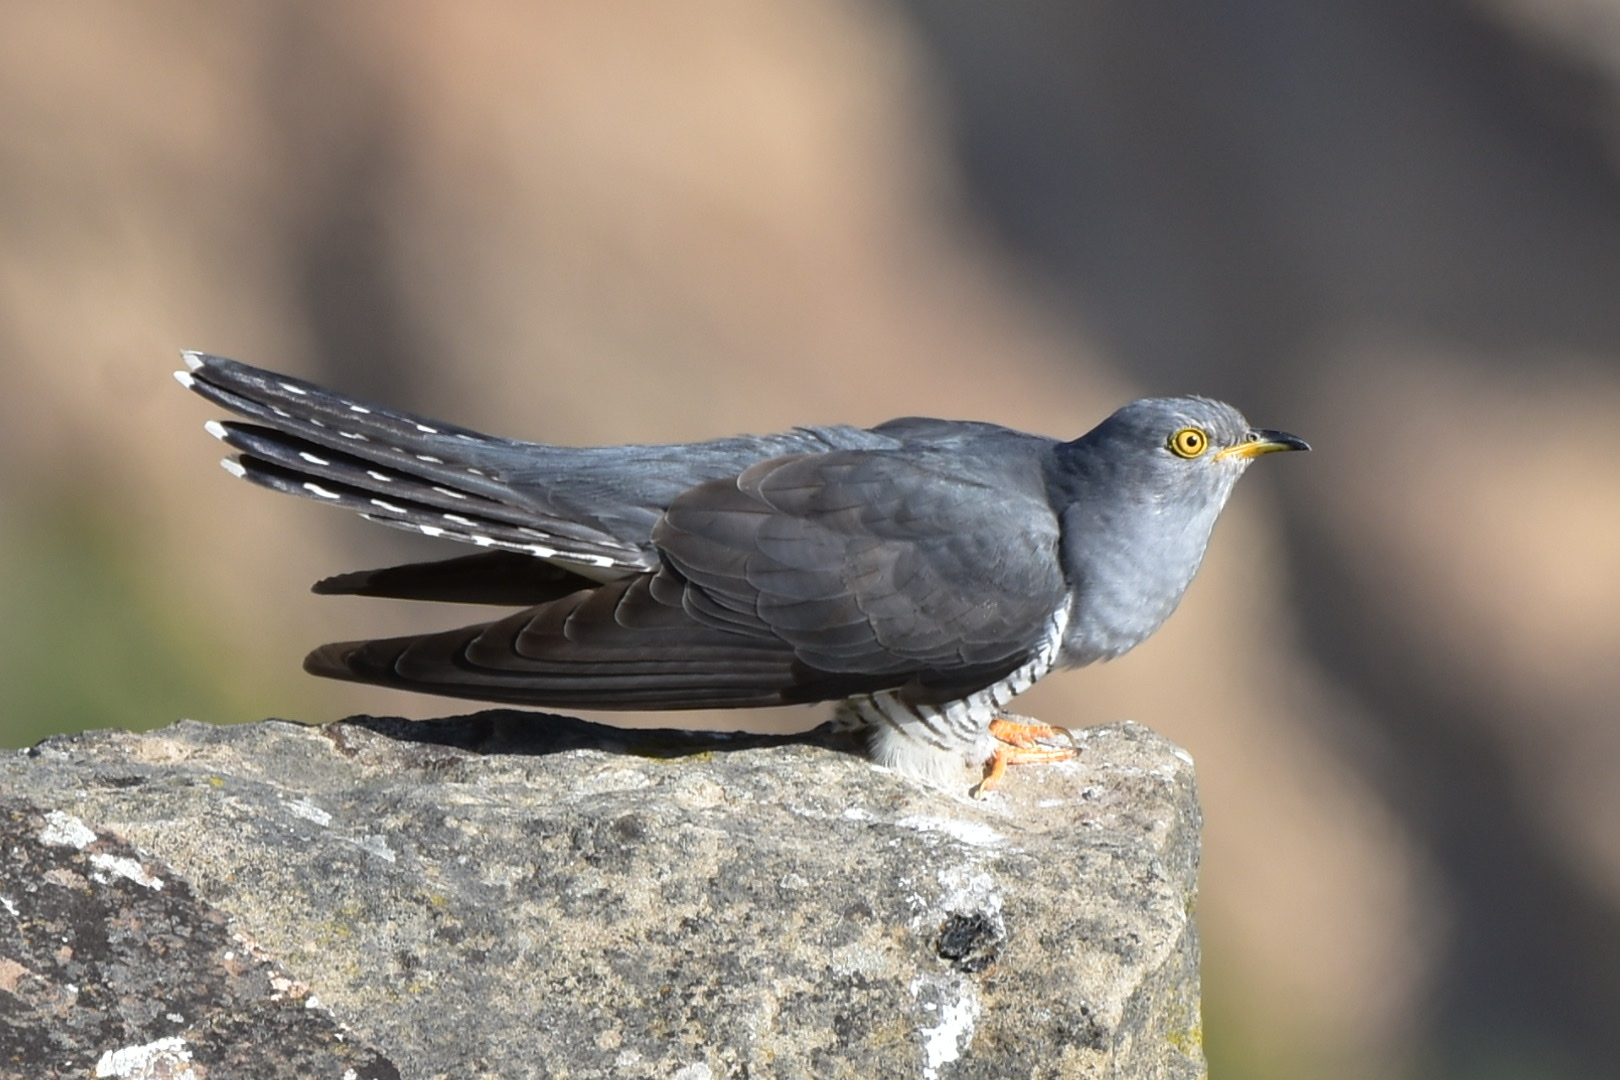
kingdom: Animalia
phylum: Chordata
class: Aves
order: Cuculiformes
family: Cuculidae
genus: Cuculus
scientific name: Cuculus canorus
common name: Common cuckoo
